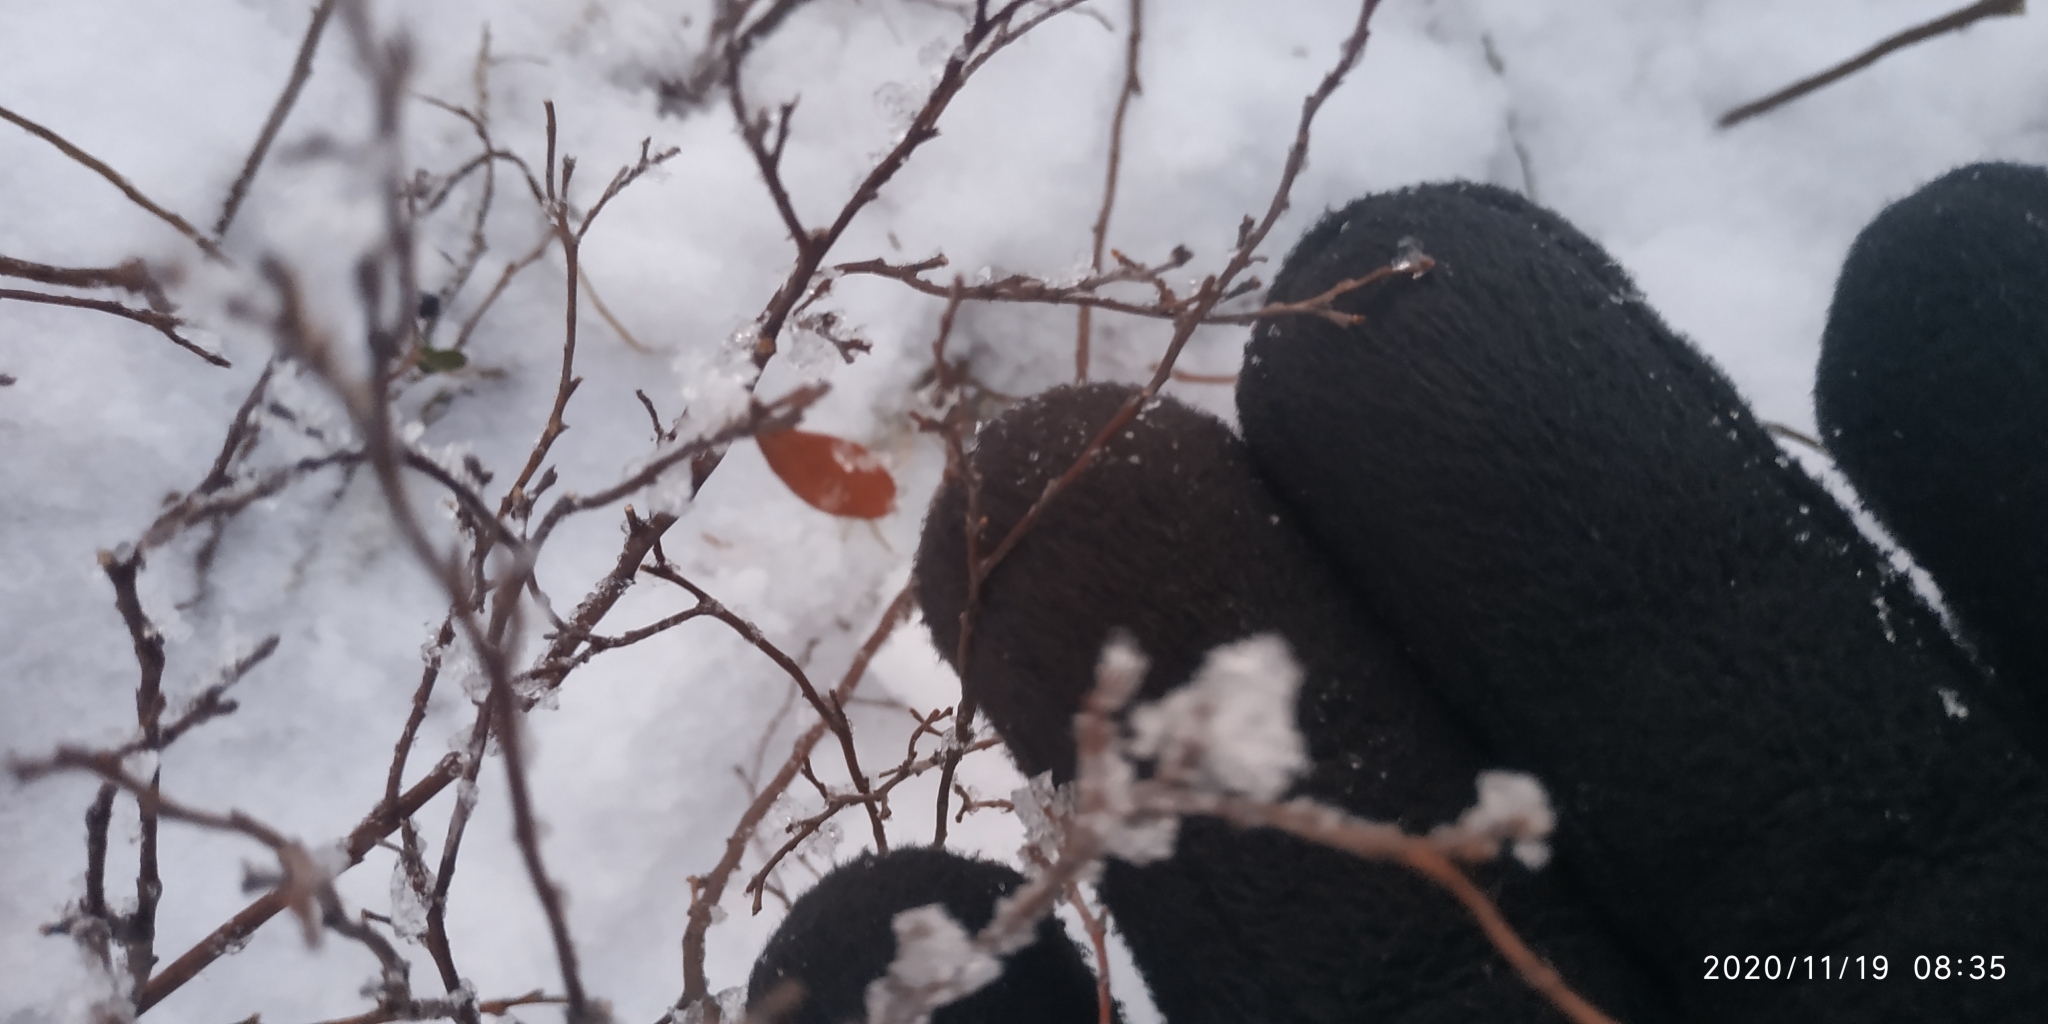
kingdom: Plantae
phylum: Tracheophyta
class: Magnoliopsida
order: Ericales
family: Ericaceae
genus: Chamaedaphne
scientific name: Chamaedaphne calyculata
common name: Leatherleaf
